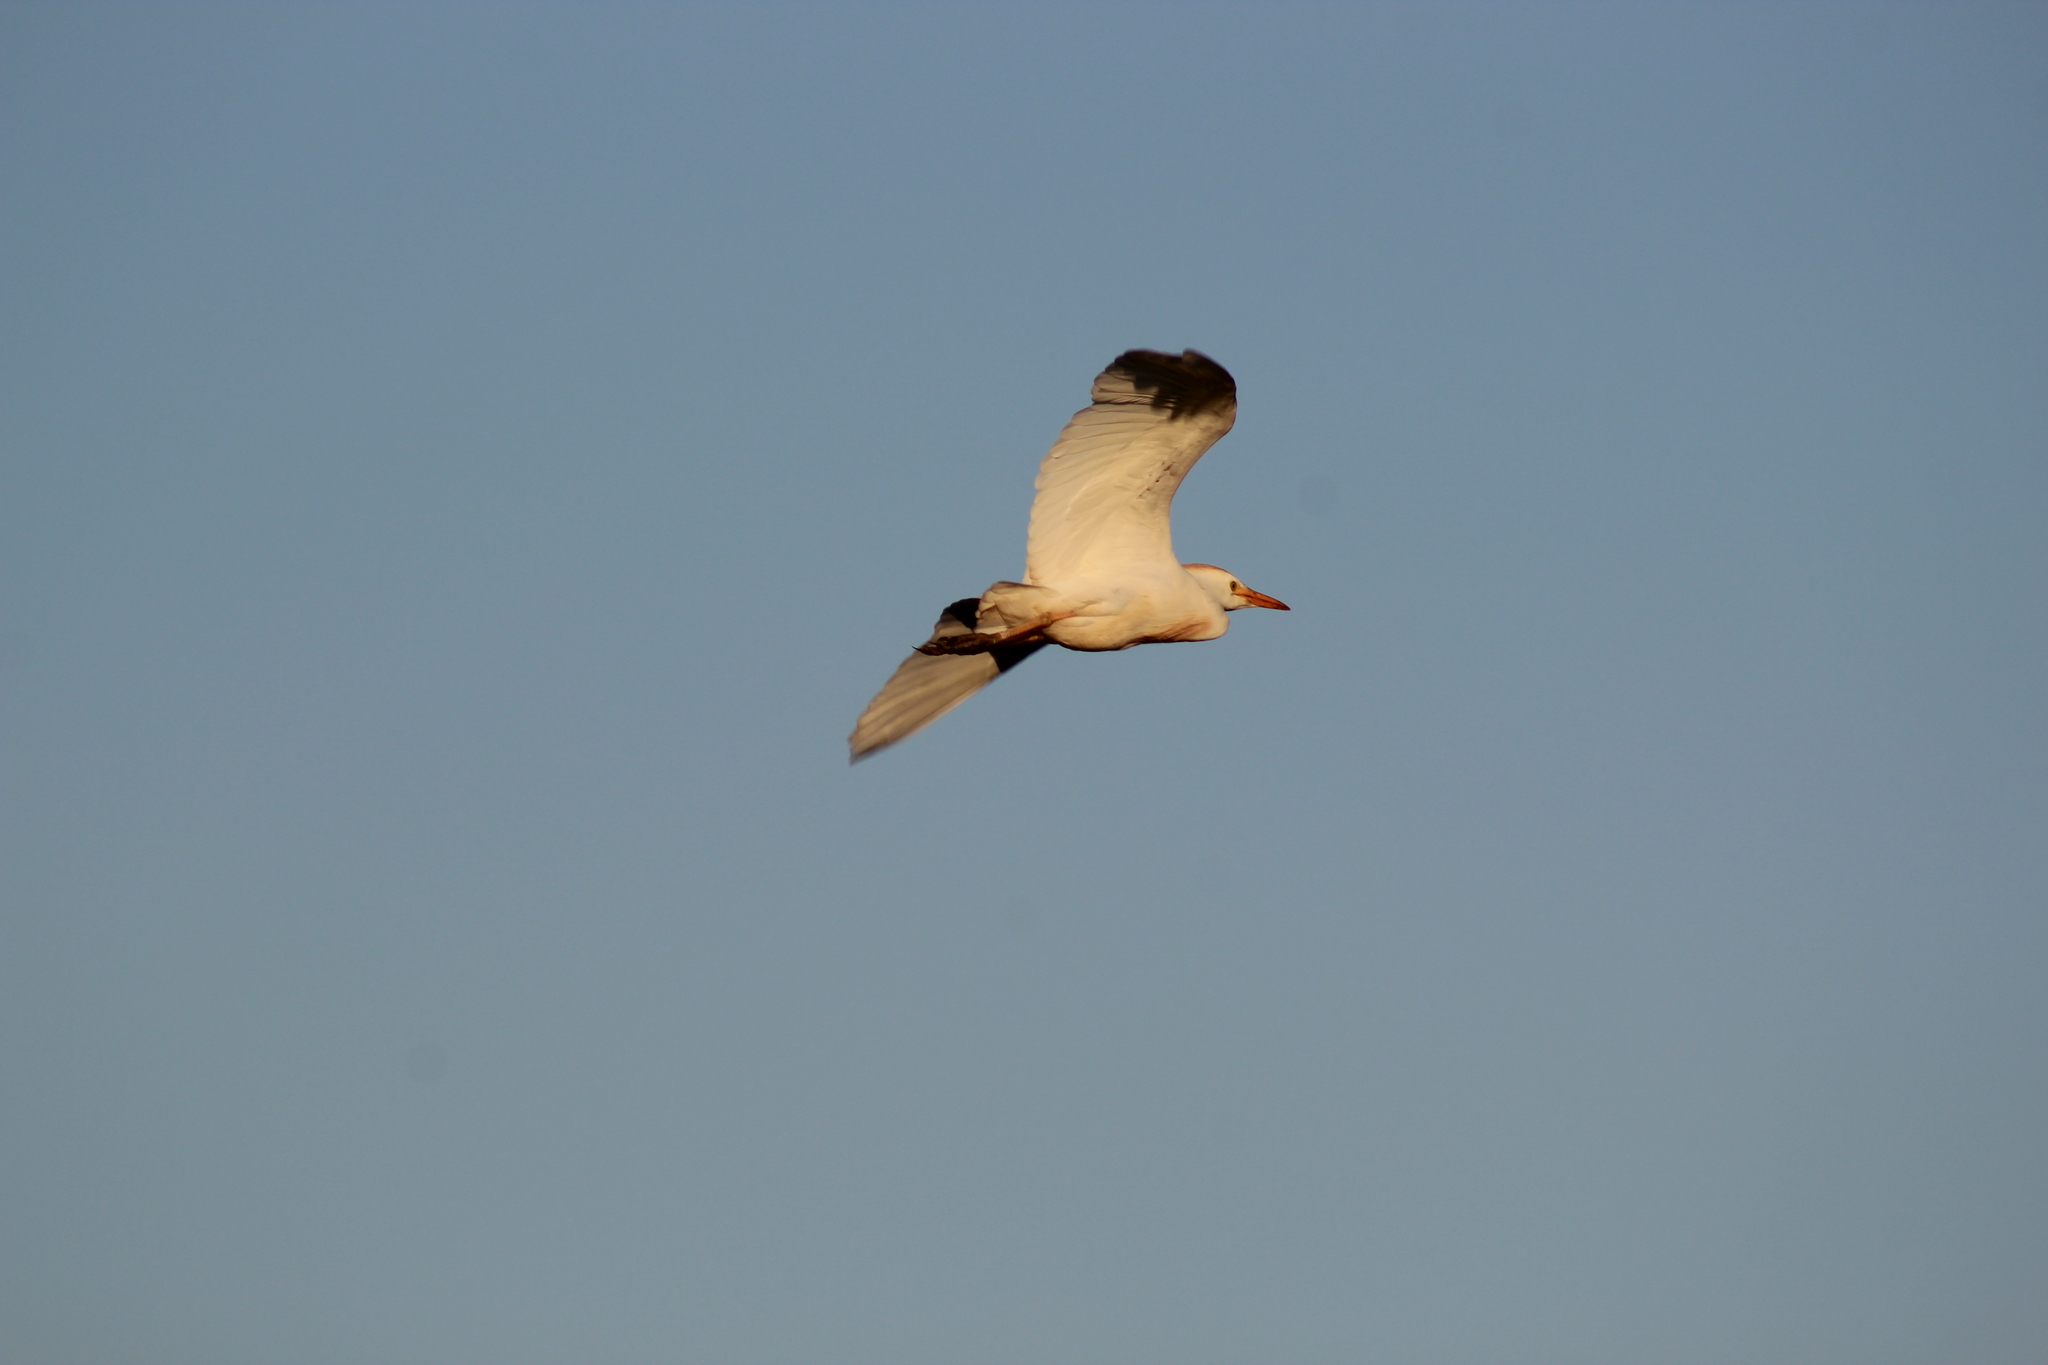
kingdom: Animalia
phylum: Chordata
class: Aves
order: Pelecaniformes
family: Ardeidae
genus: Bubulcus
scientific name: Bubulcus ibis
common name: Cattle egret
